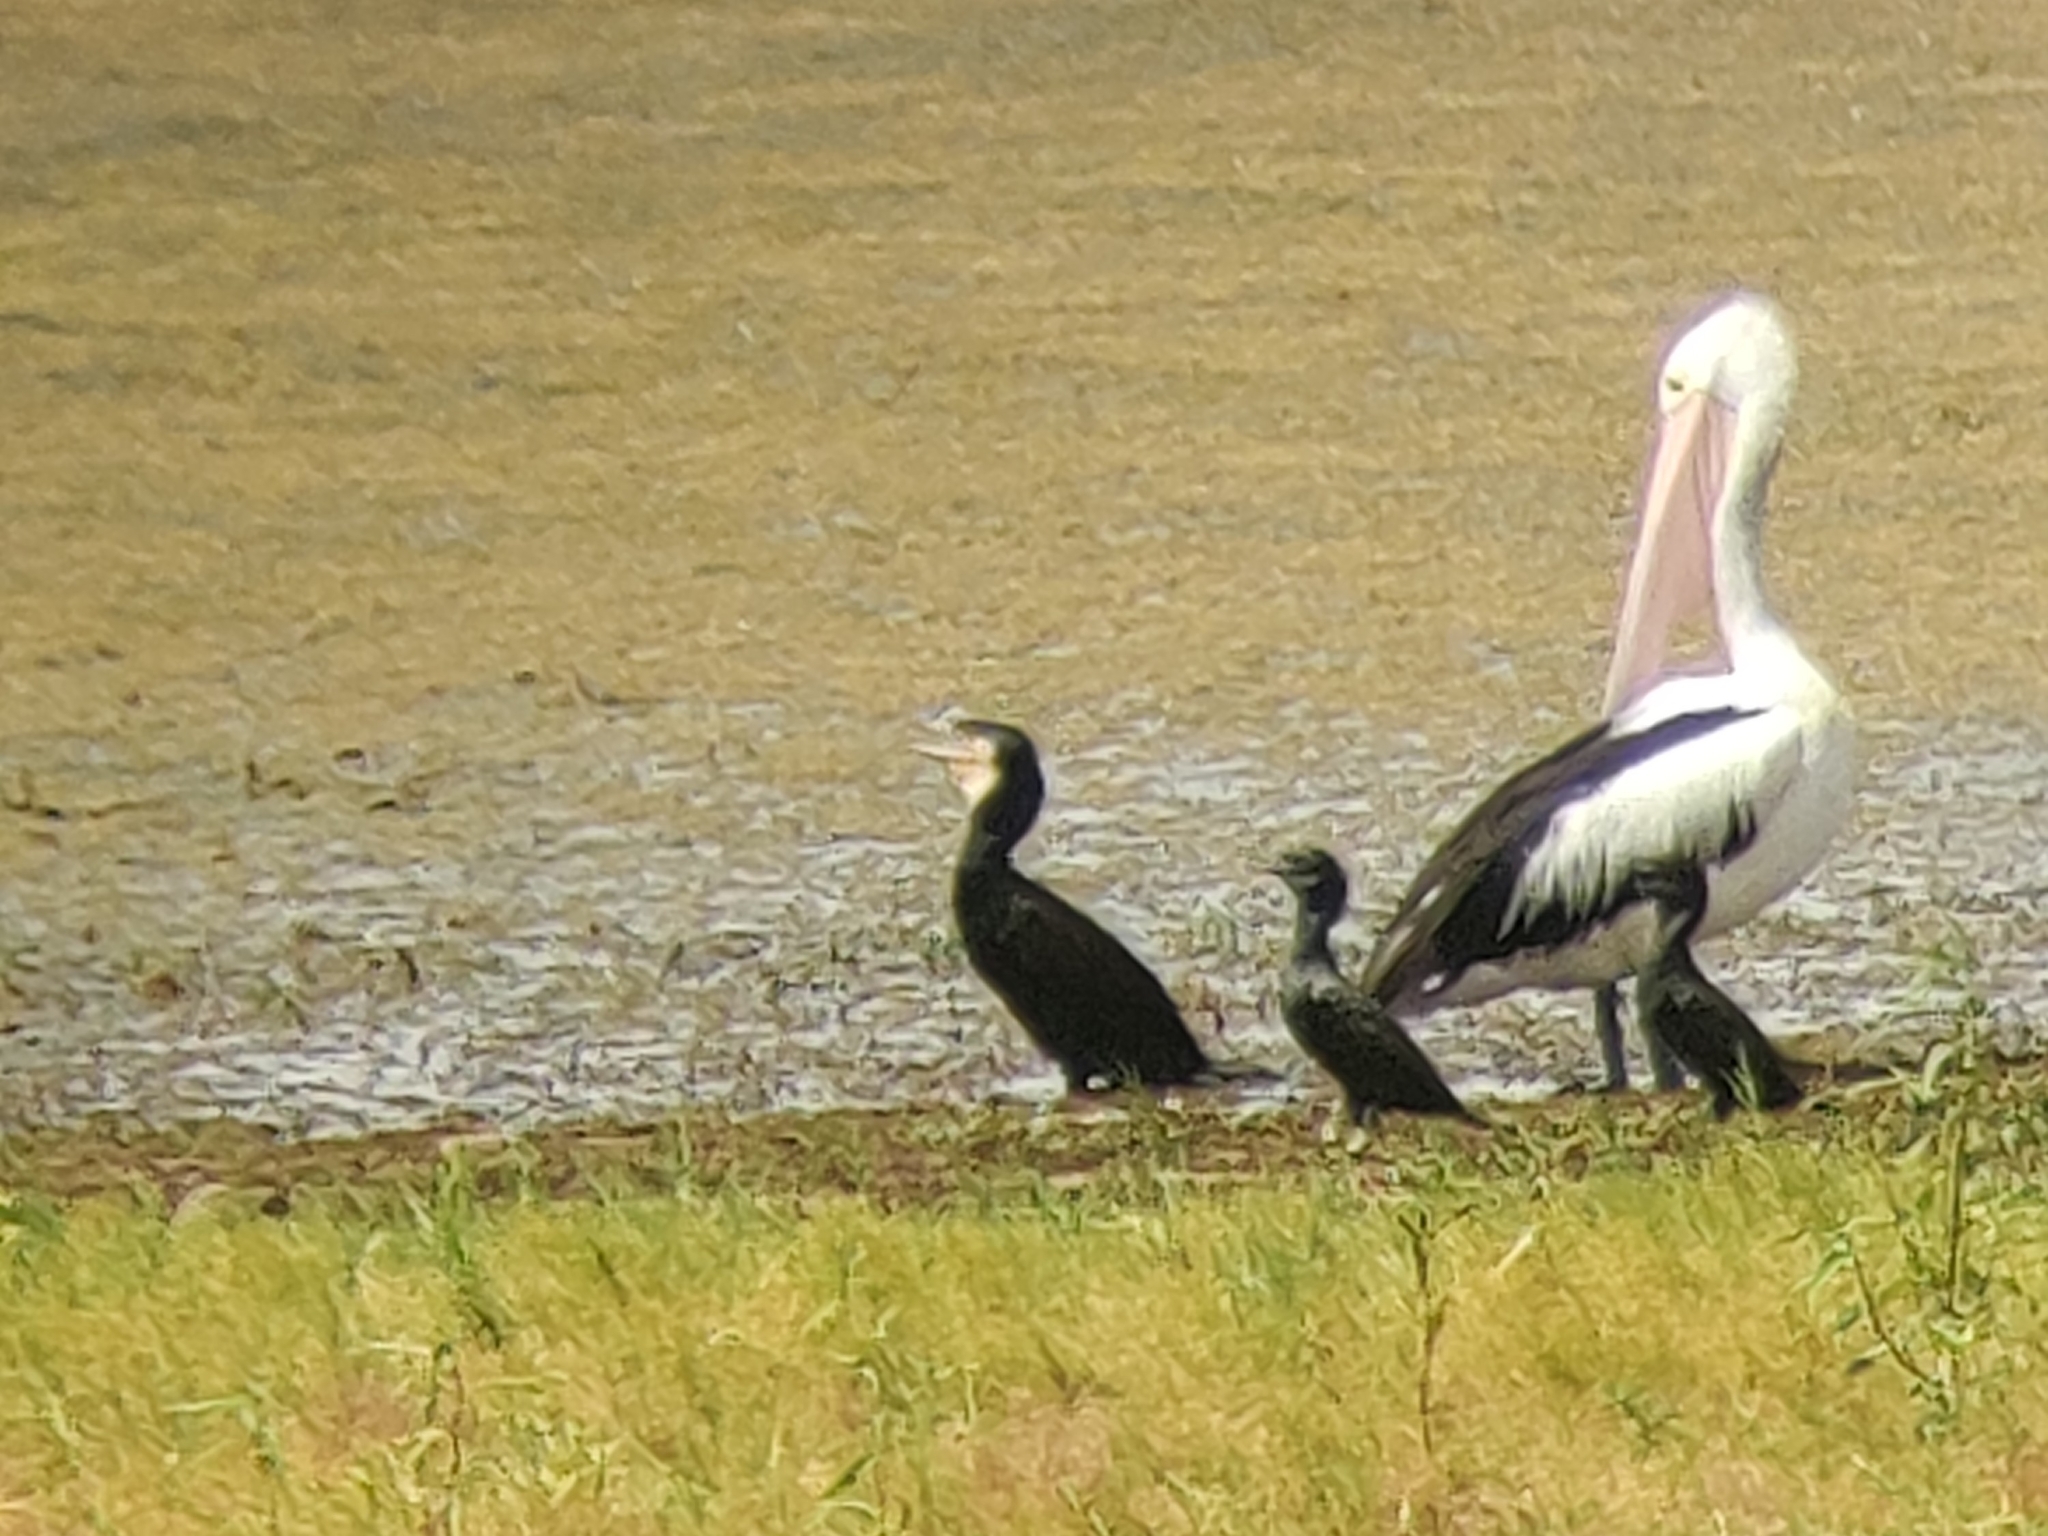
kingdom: Animalia
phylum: Chordata
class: Aves
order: Suliformes
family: Phalacrocoracidae
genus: Phalacrocorax
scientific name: Phalacrocorax carbo
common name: Great cormorant
